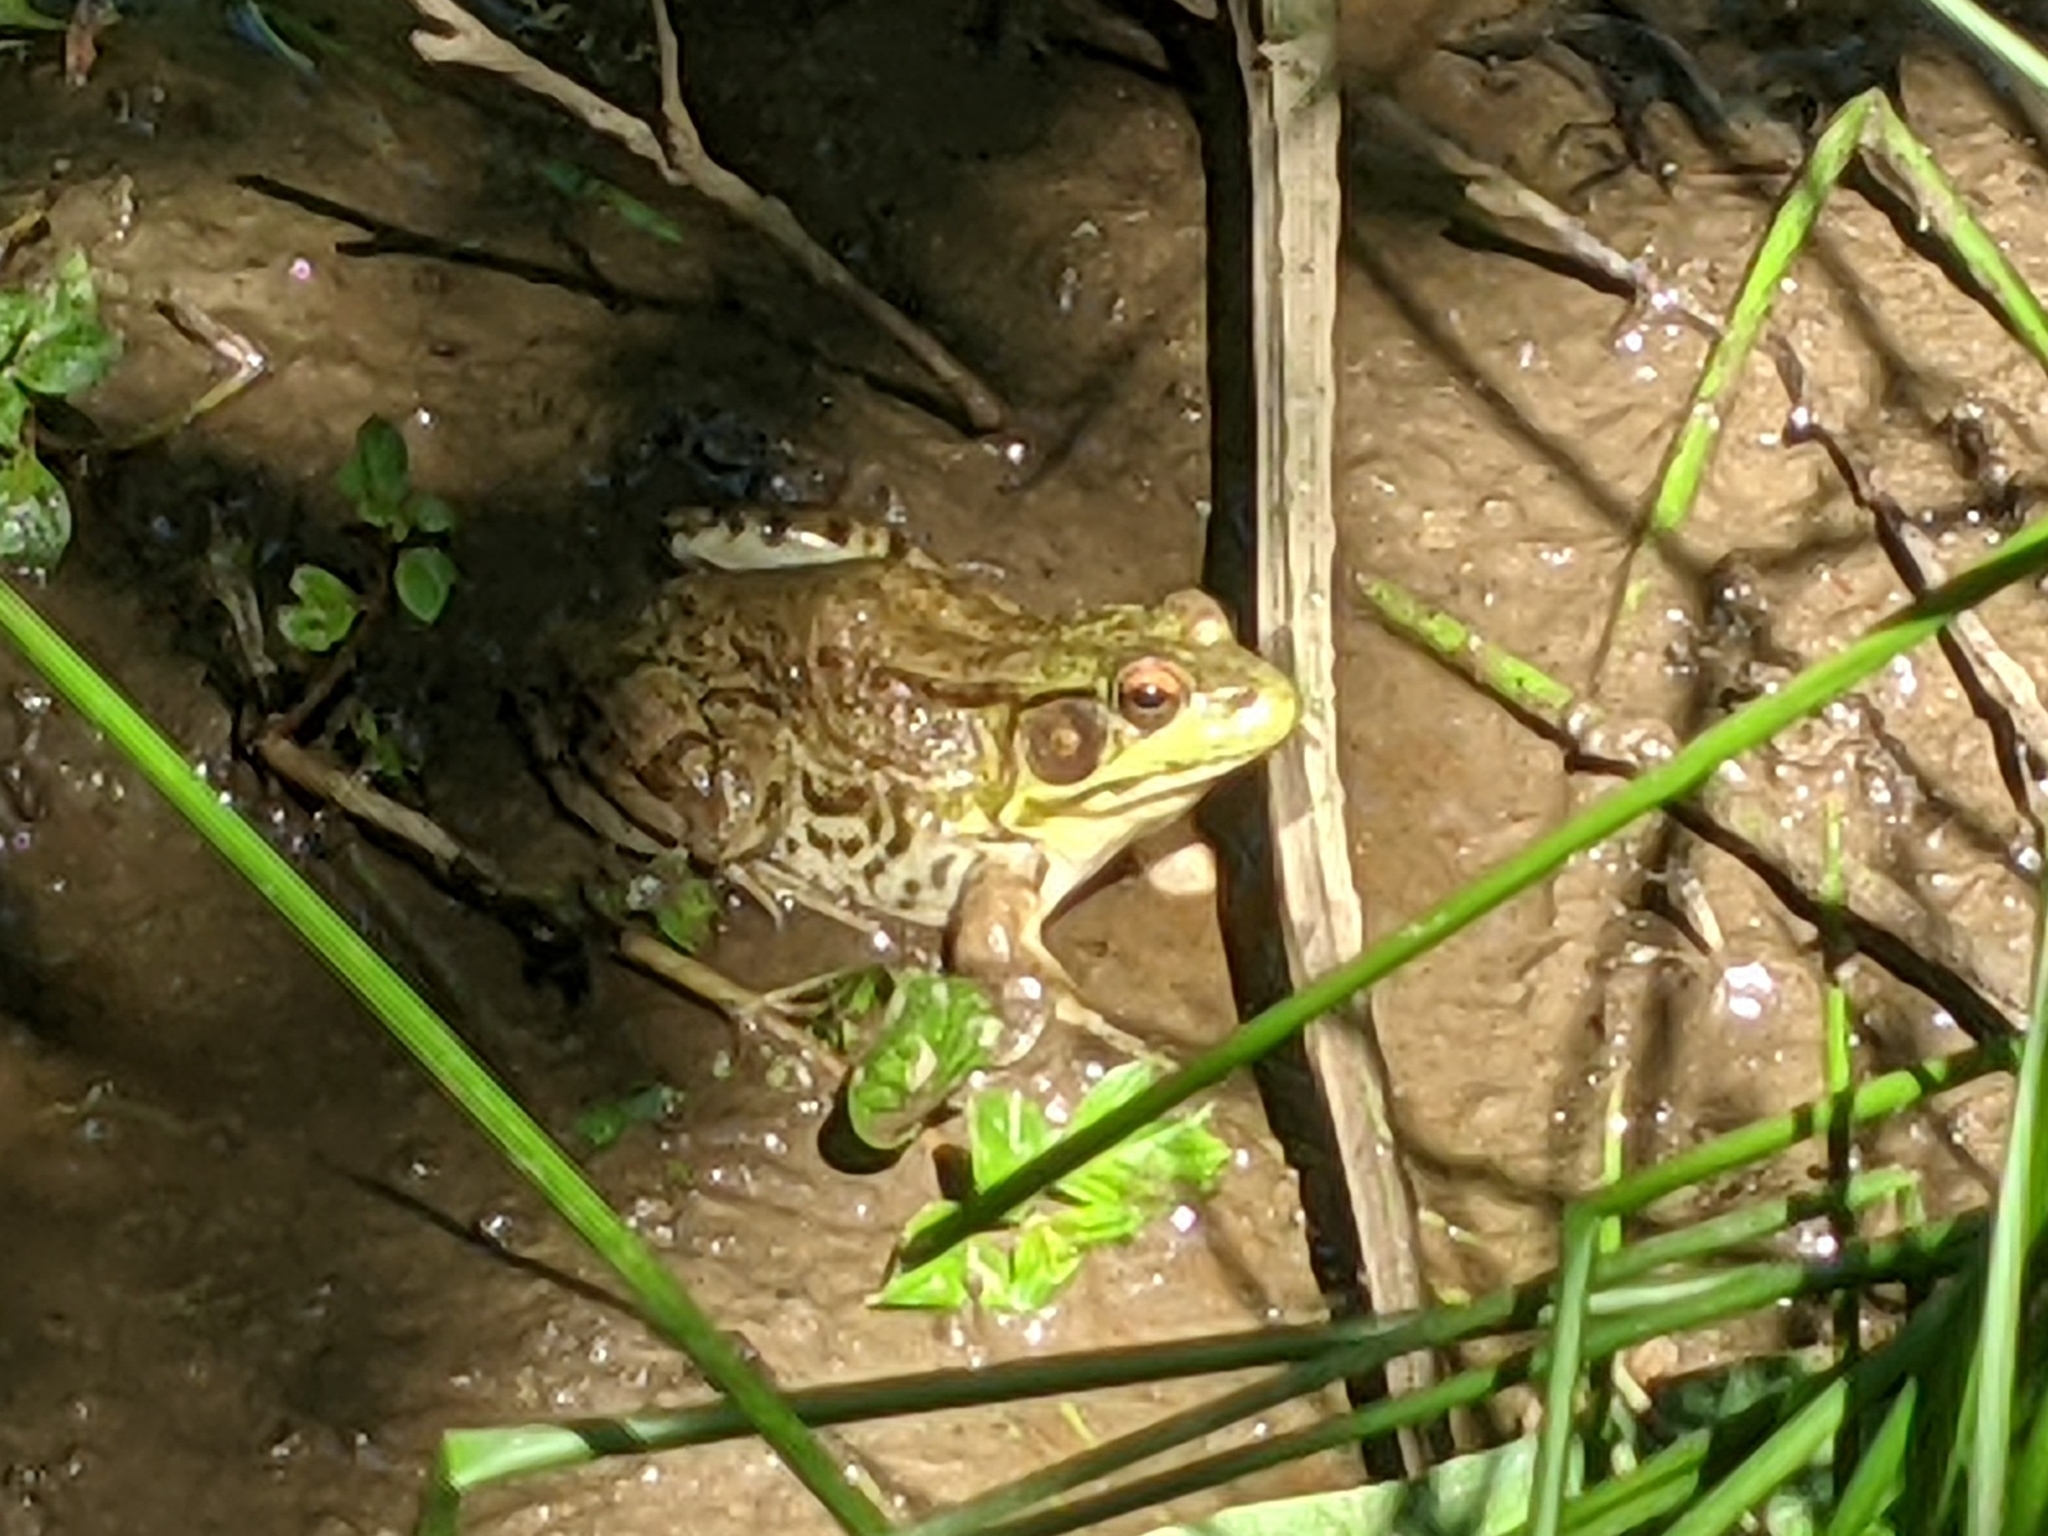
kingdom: Animalia
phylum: Chordata
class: Amphibia
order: Anura
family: Ranidae
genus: Lithobates
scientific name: Lithobates clamitans
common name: Green frog
